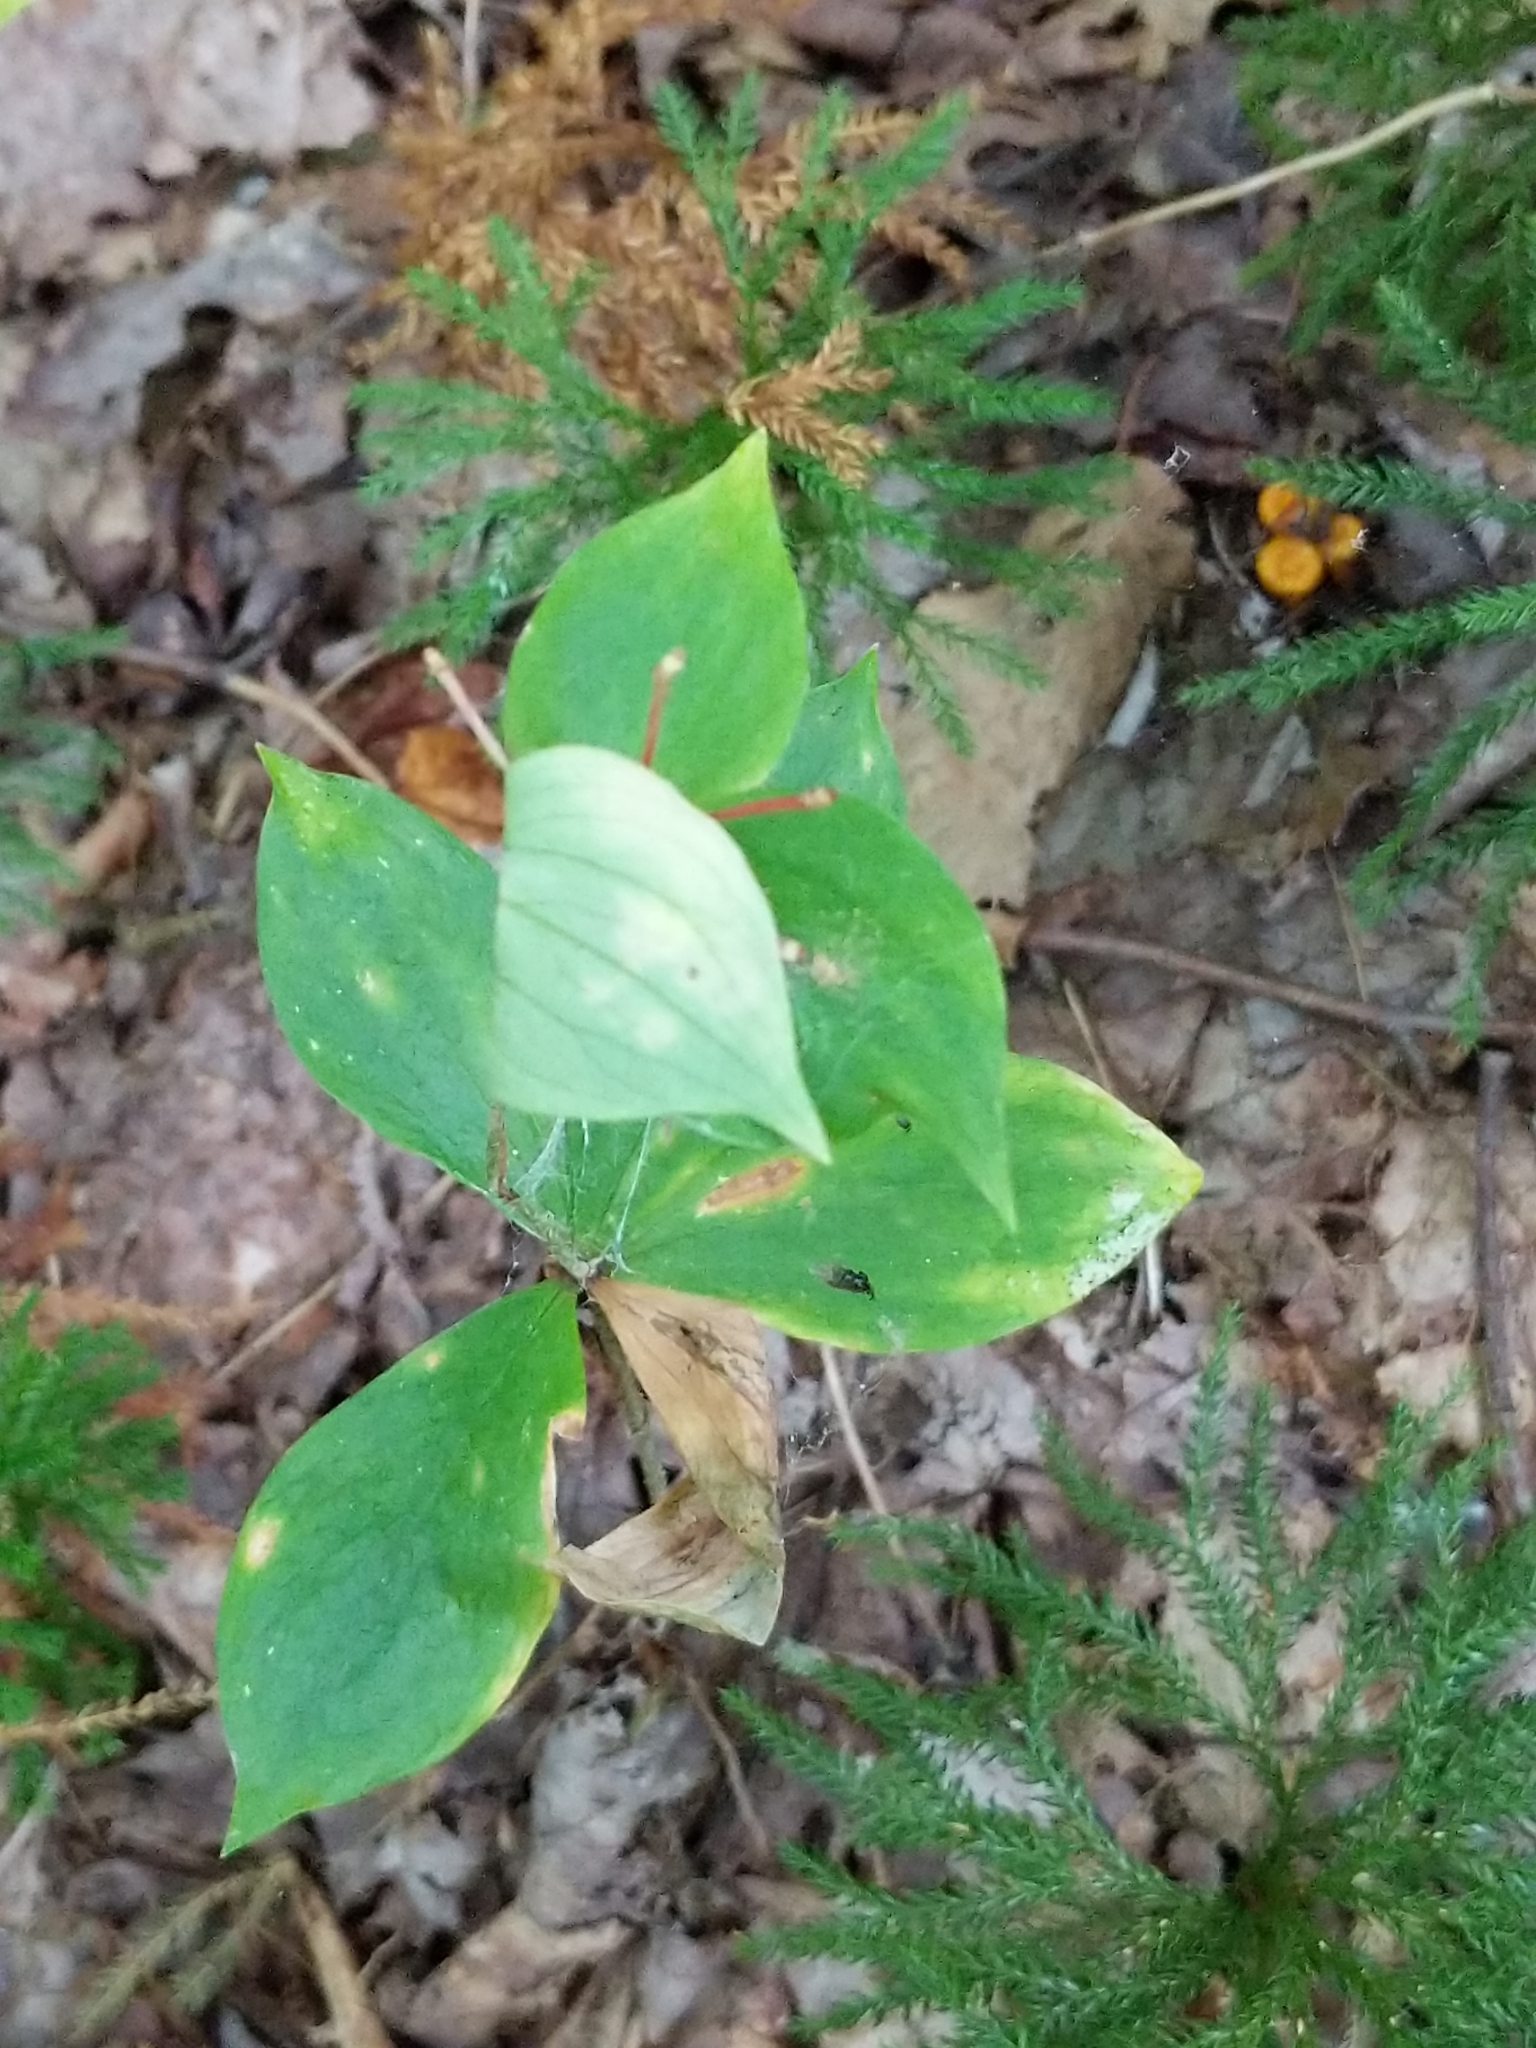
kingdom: Plantae
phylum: Tracheophyta
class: Liliopsida
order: Liliales
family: Liliaceae
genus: Medeola
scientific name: Medeola virginiana
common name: Indian cucumber-root
